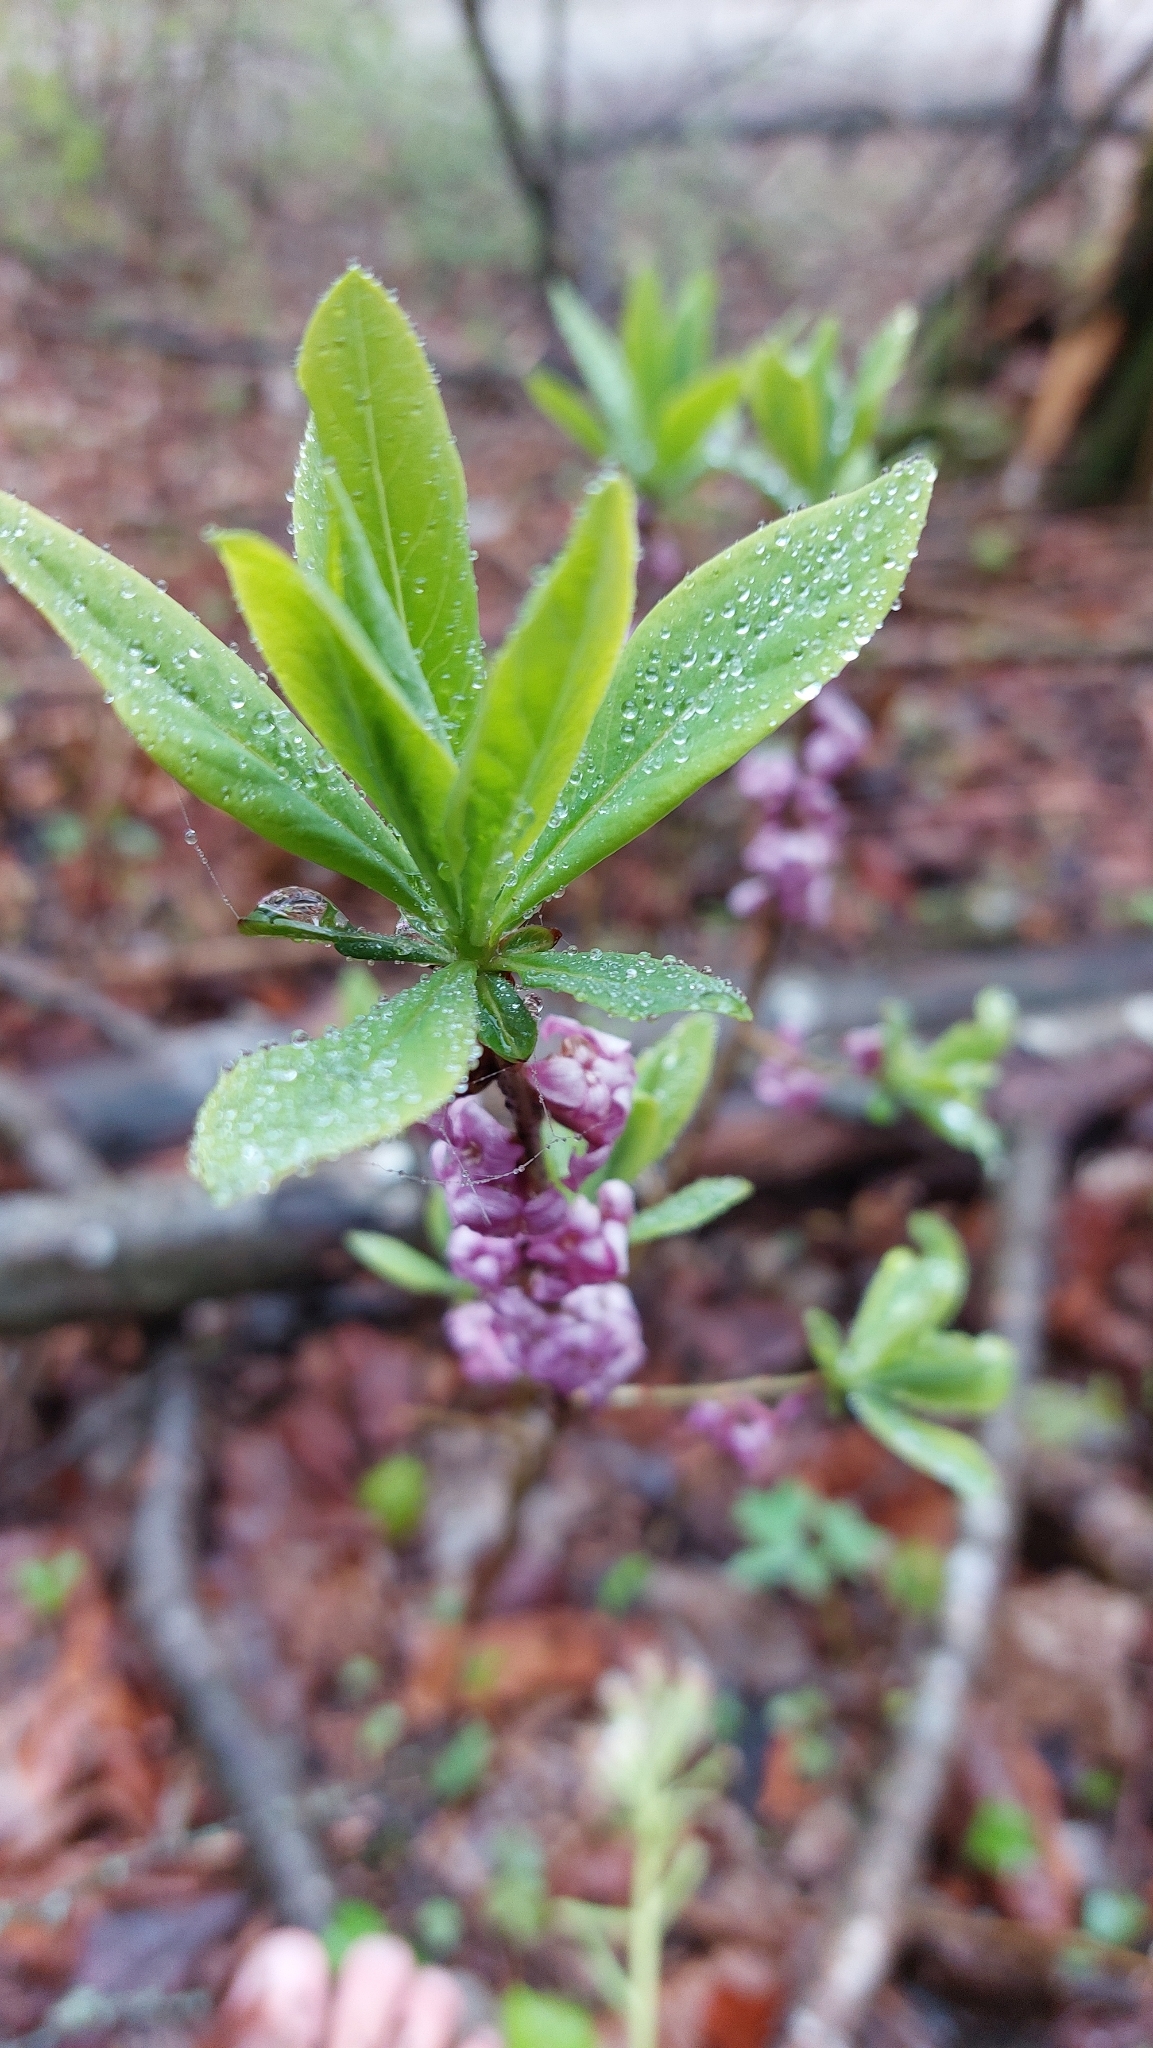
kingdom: Plantae
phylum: Tracheophyta
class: Magnoliopsida
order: Malvales
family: Thymelaeaceae
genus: Daphne
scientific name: Daphne mezereum
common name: Mezereon
